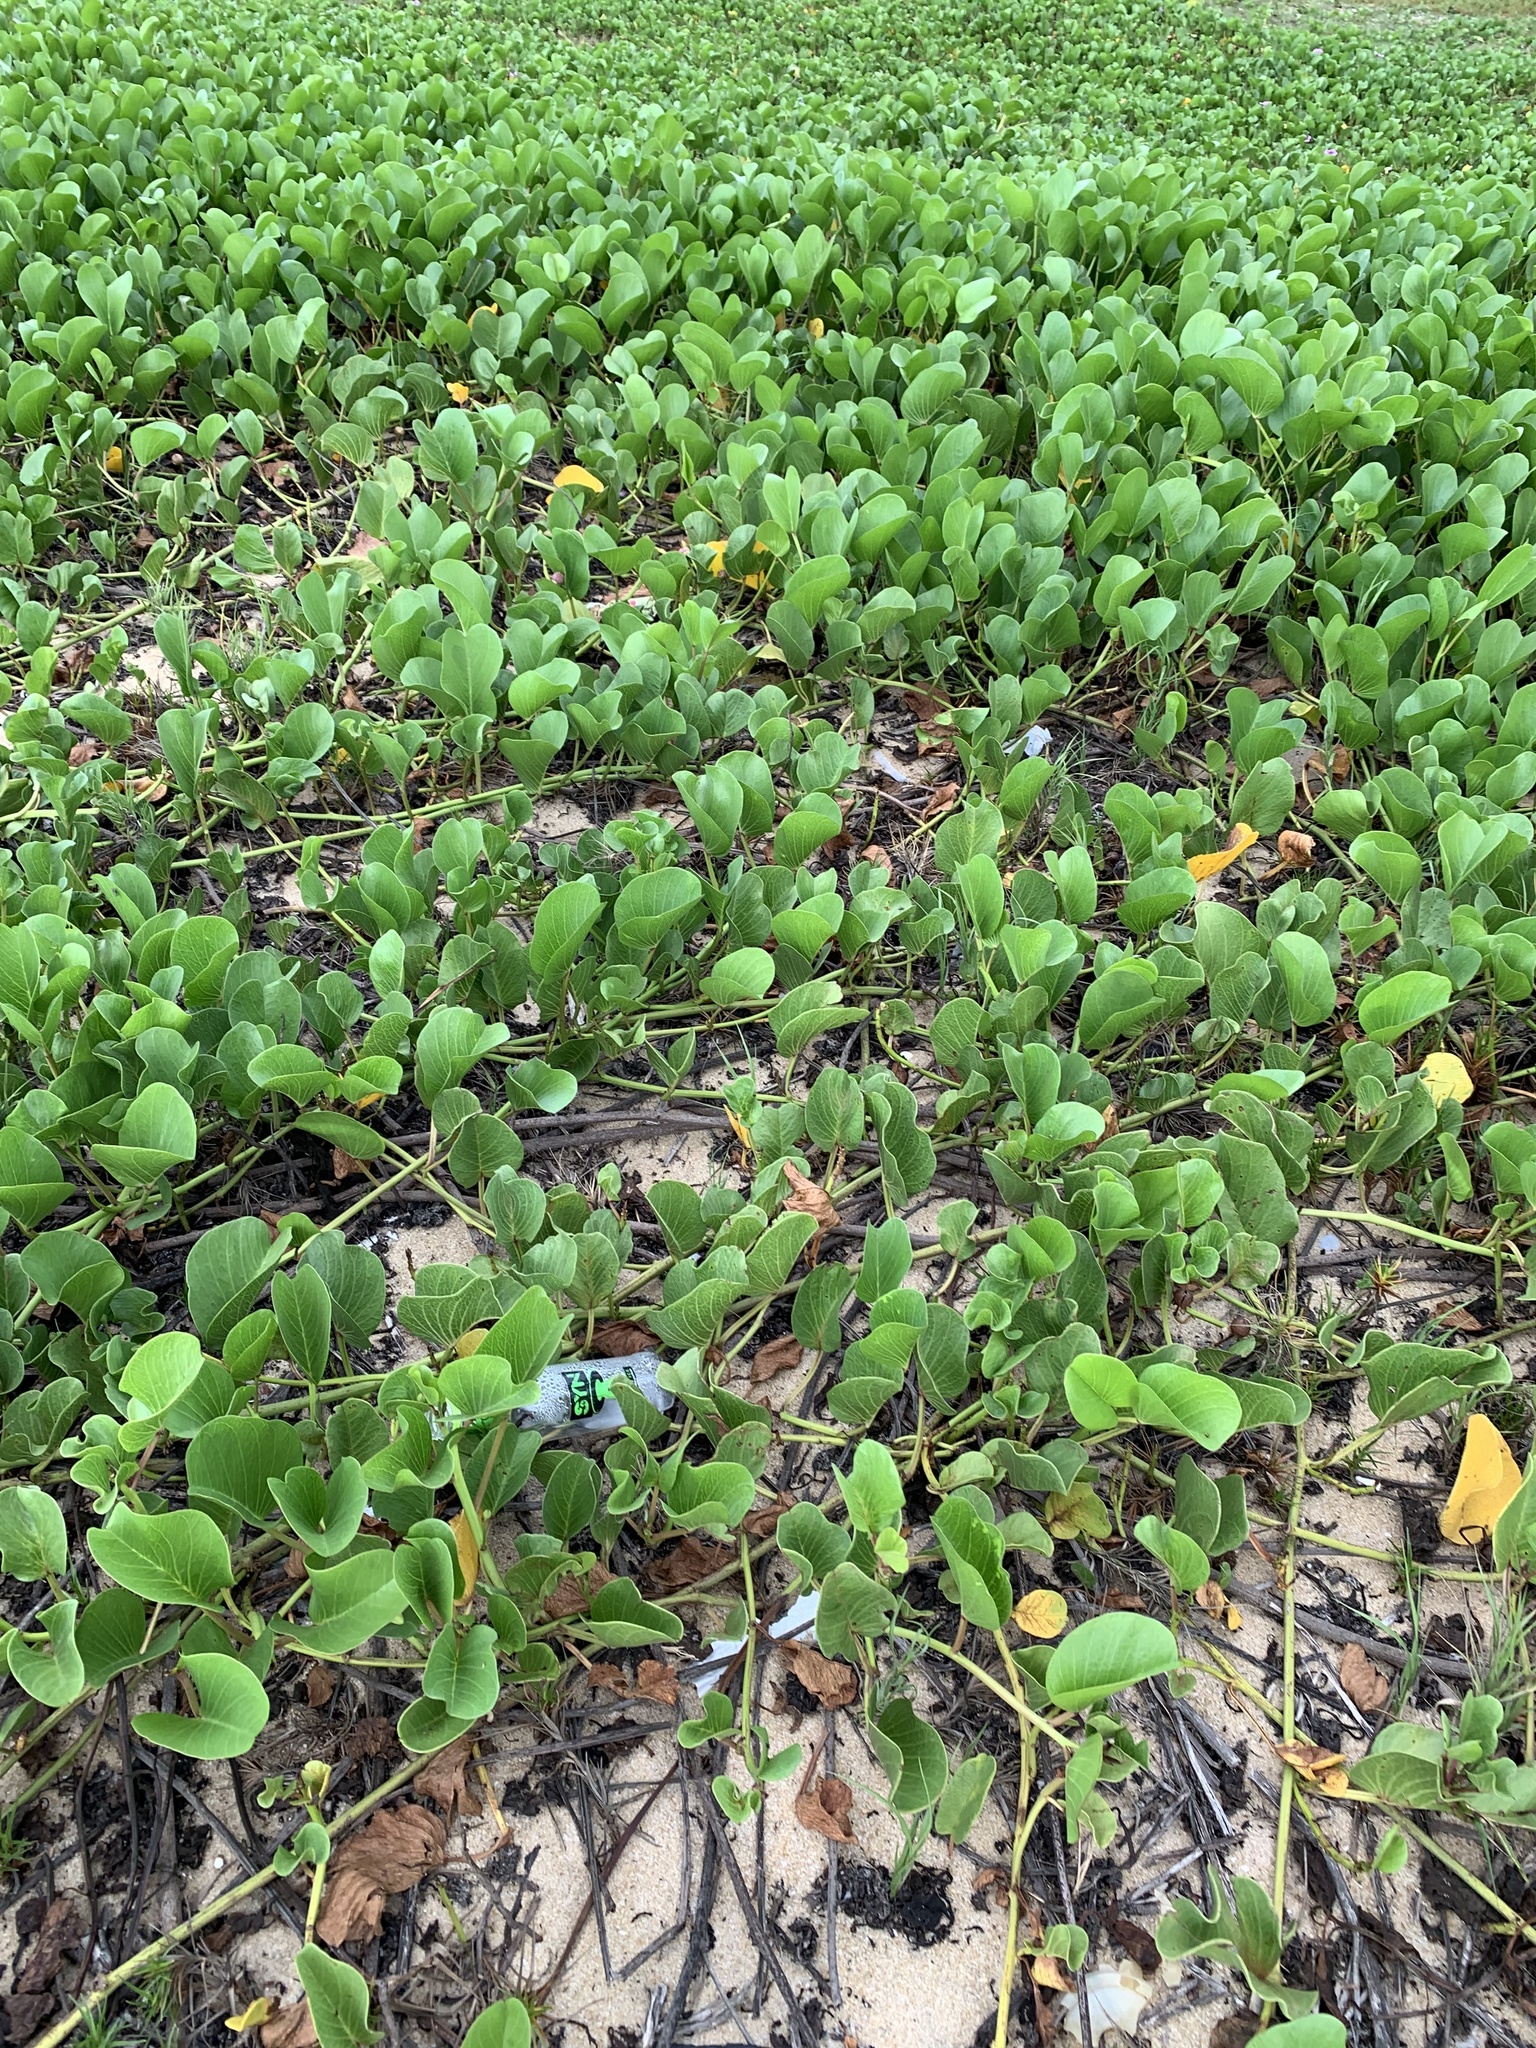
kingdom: Plantae
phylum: Tracheophyta
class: Magnoliopsida
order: Solanales
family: Convolvulaceae
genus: Ipomoea
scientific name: Ipomoea pes-caprae
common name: Beach morning glory
